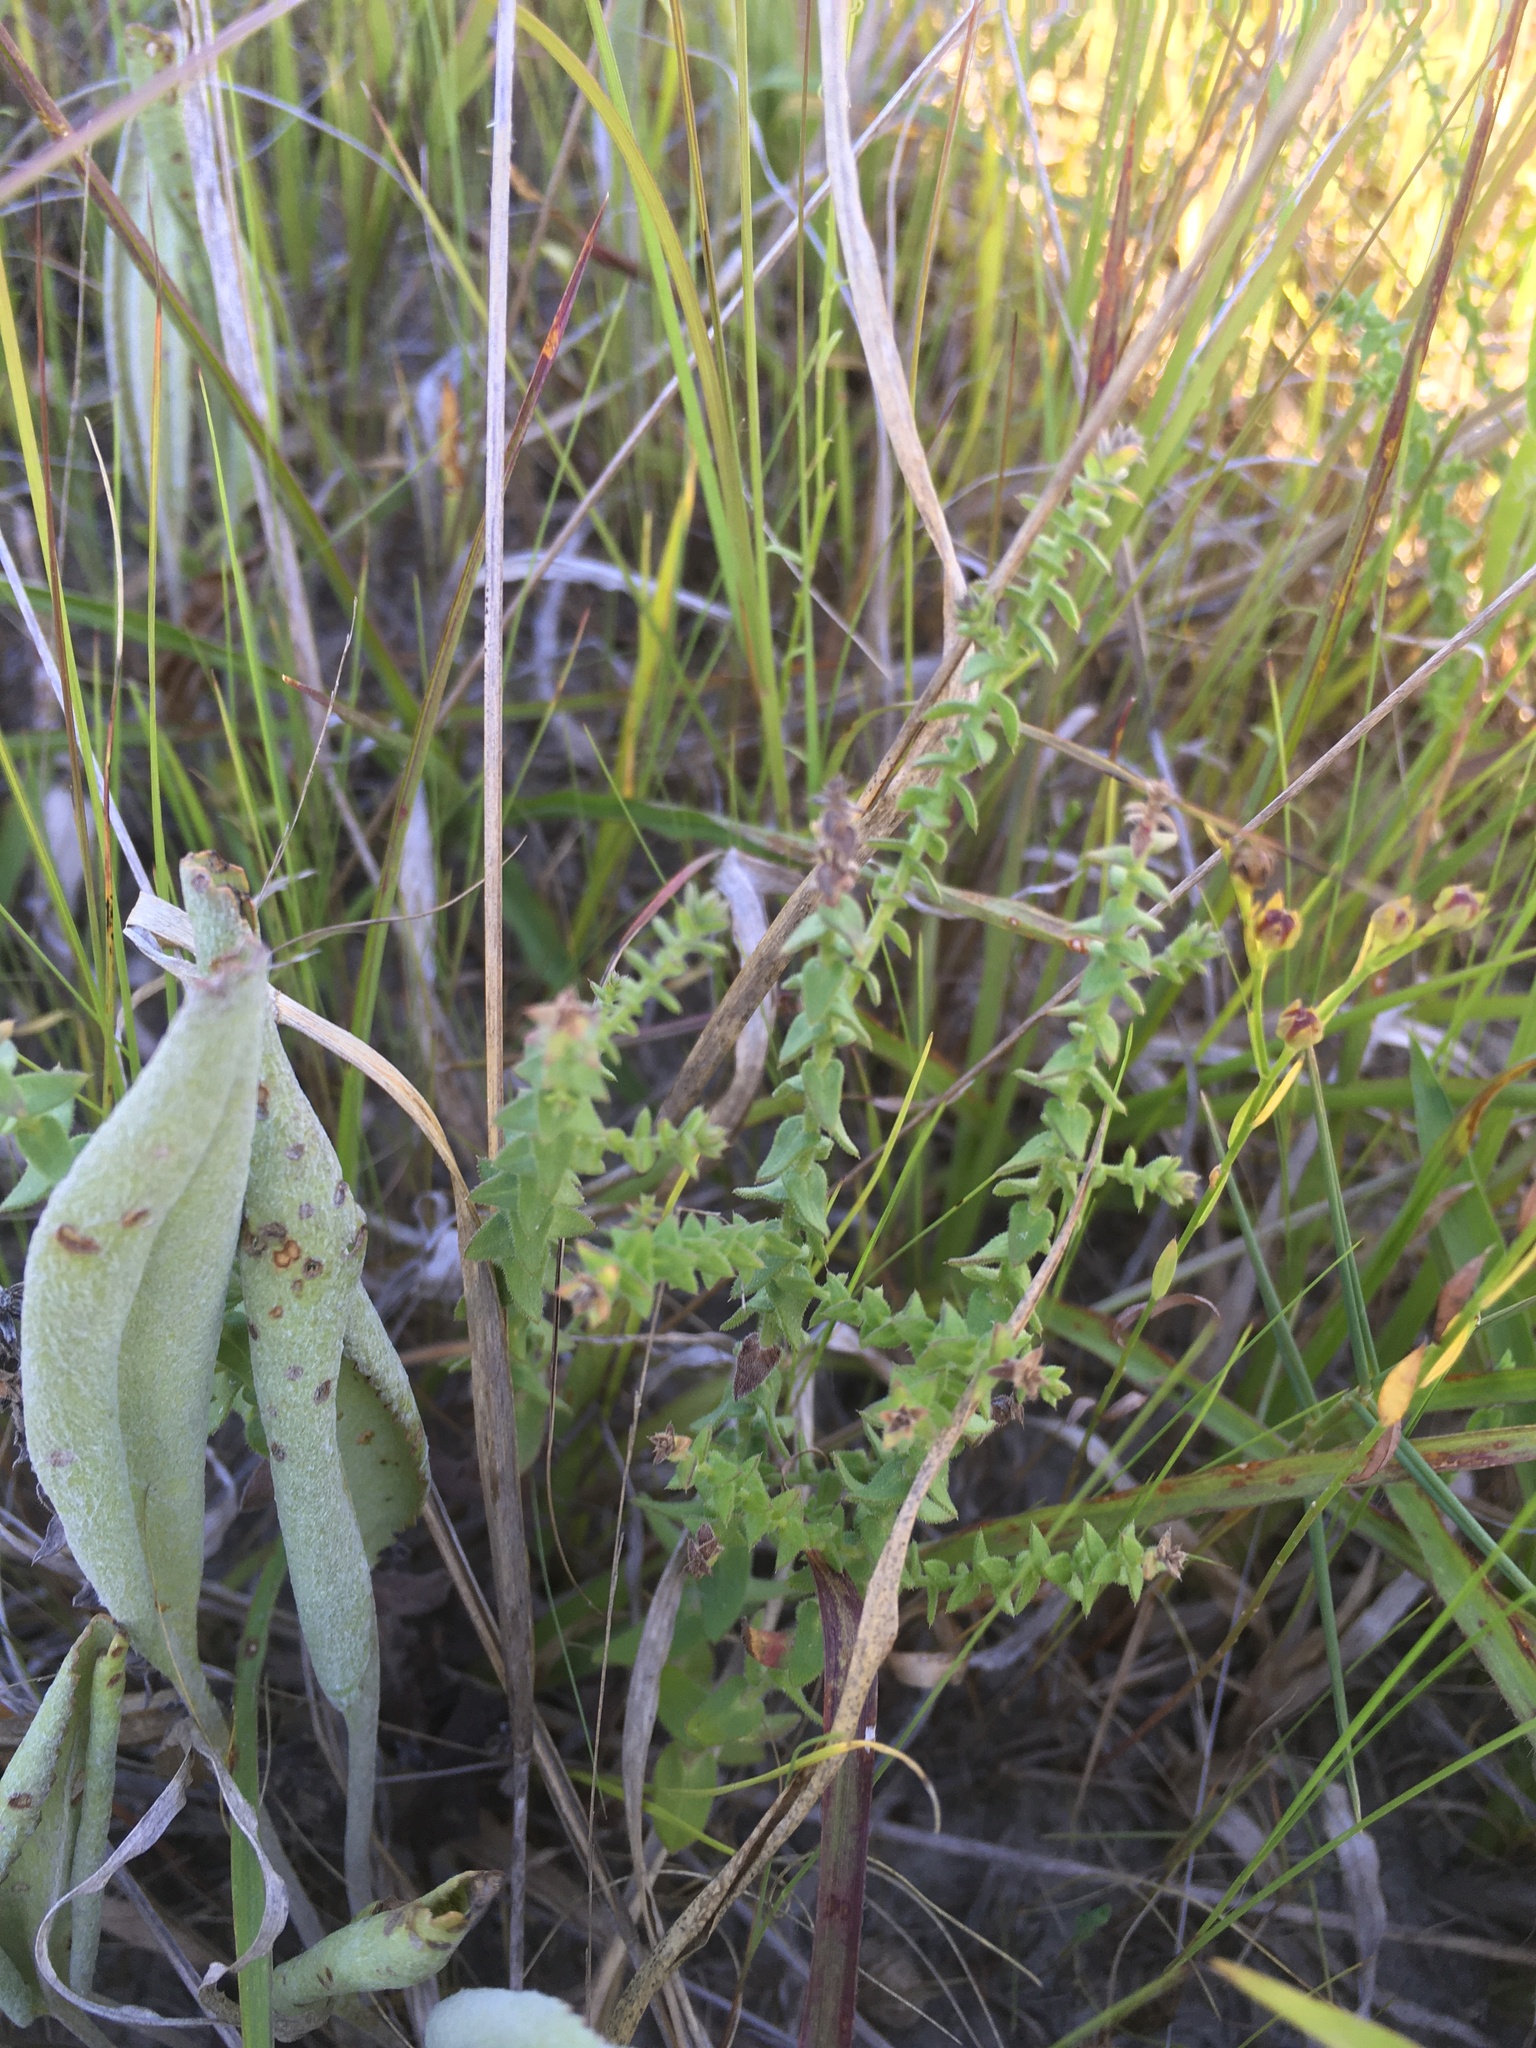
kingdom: Plantae
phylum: Tracheophyta
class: Magnoliopsida
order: Asterales
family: Asteraceae
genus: Symphyotrichum
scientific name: Symphyotrichum walteri
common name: Walter's aster
